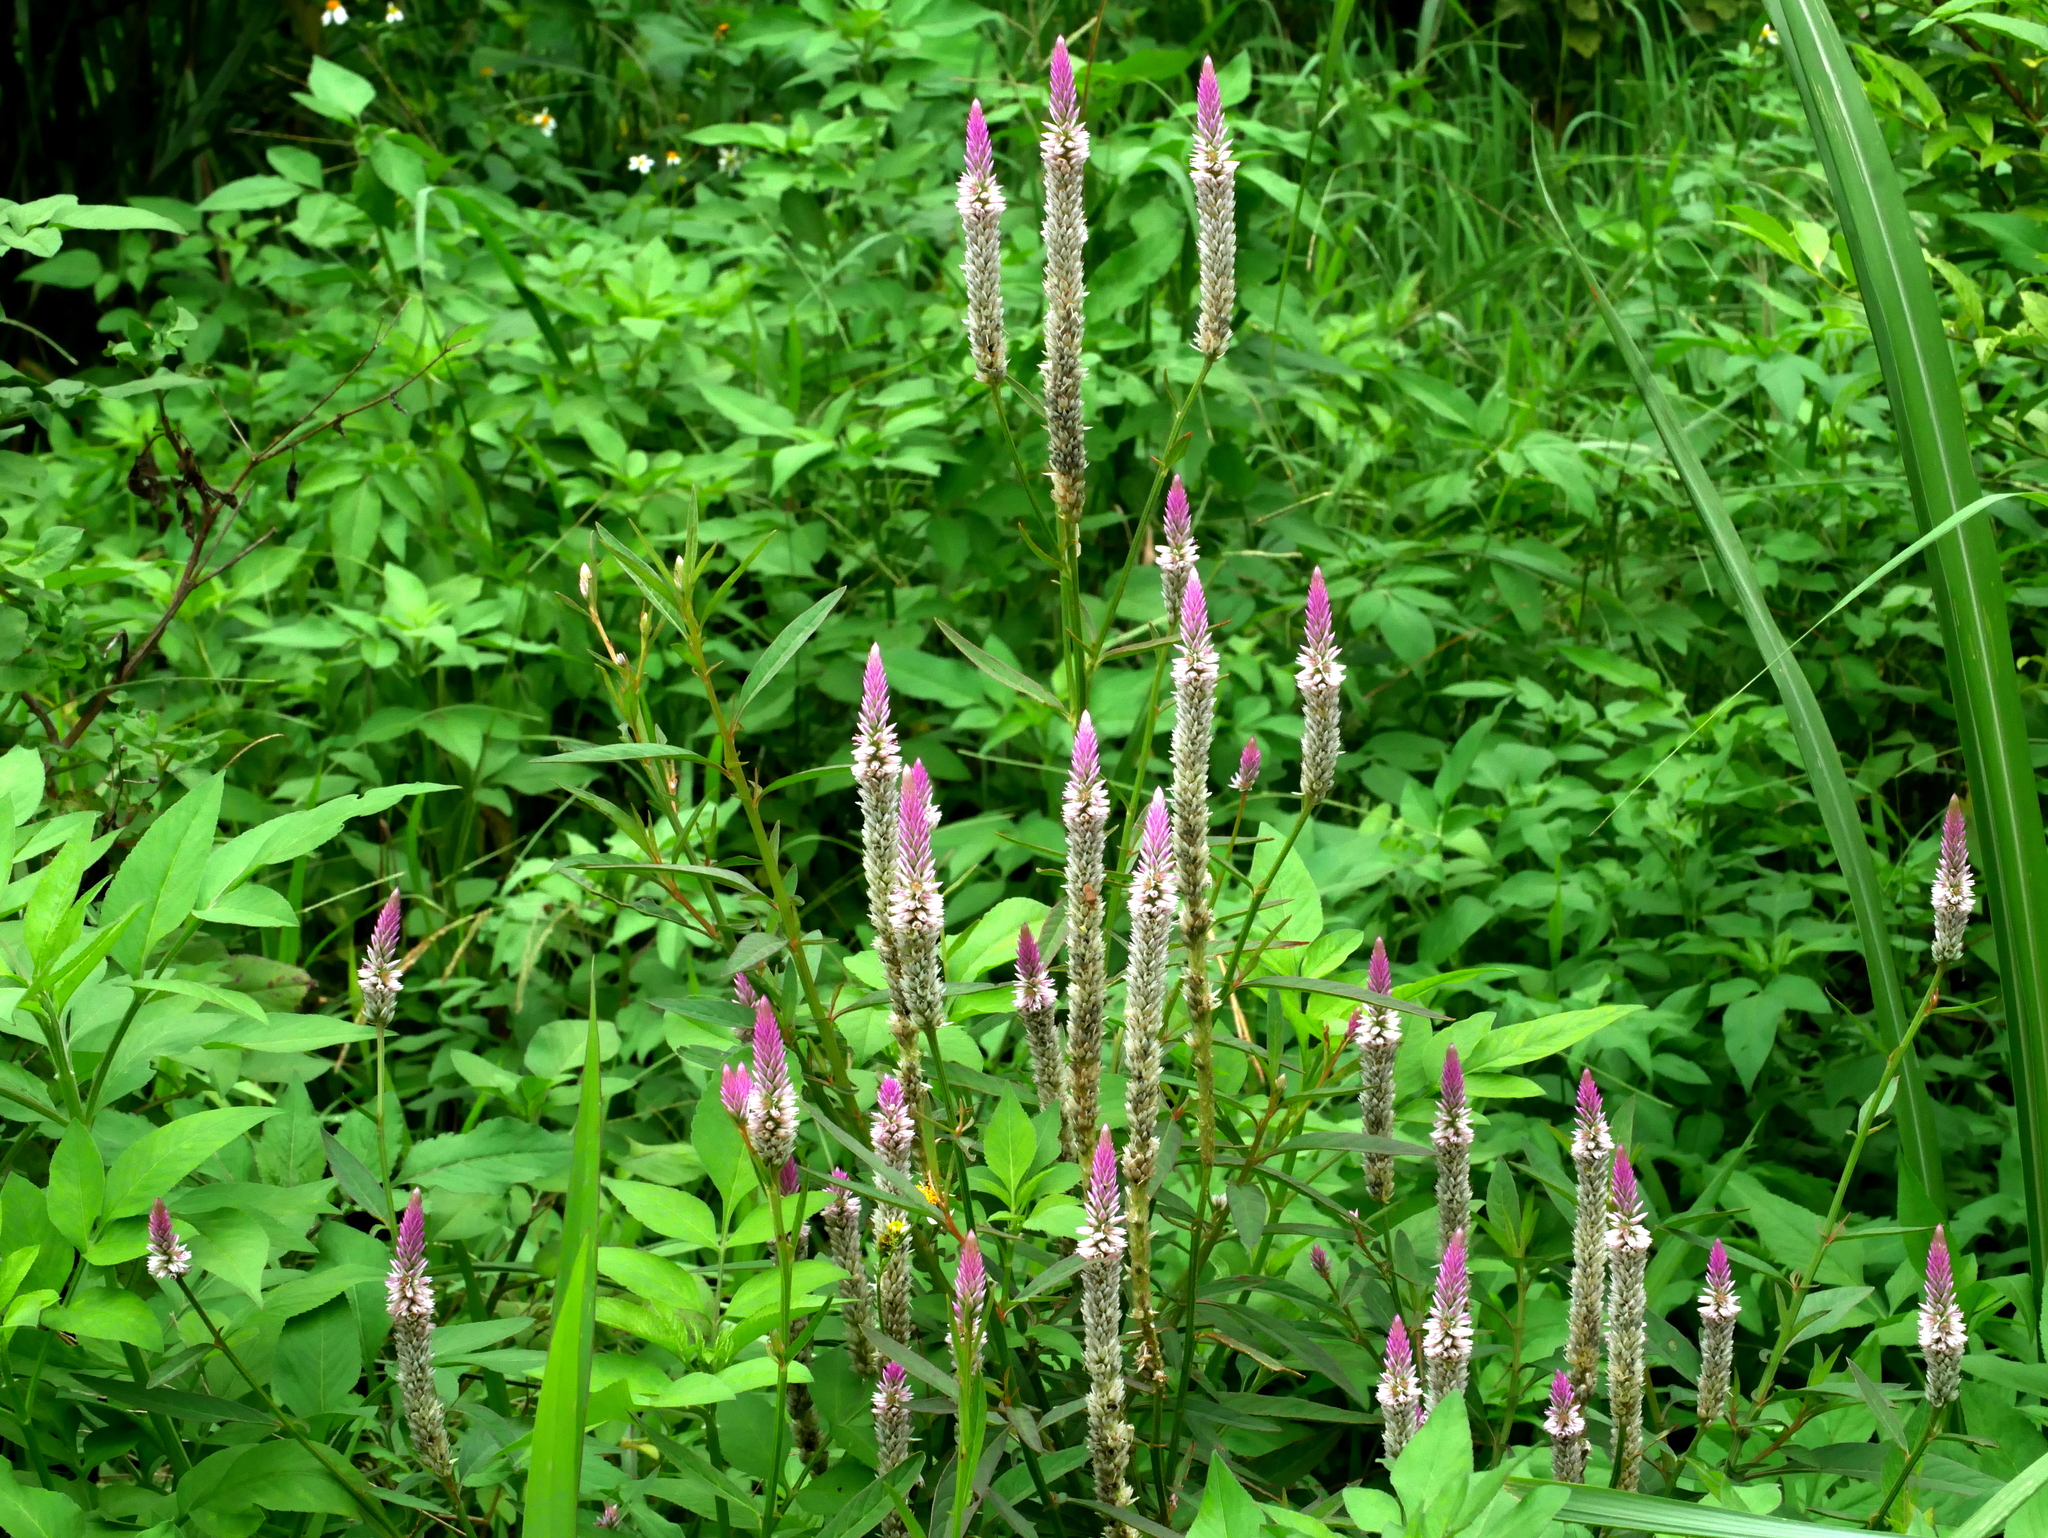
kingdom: Plantae
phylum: Tracheophyta
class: Magnoliopsida
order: Caryophyllales
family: Amaranthaceae
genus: Celosia
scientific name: Celosia argentea
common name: Feather cockscomb
